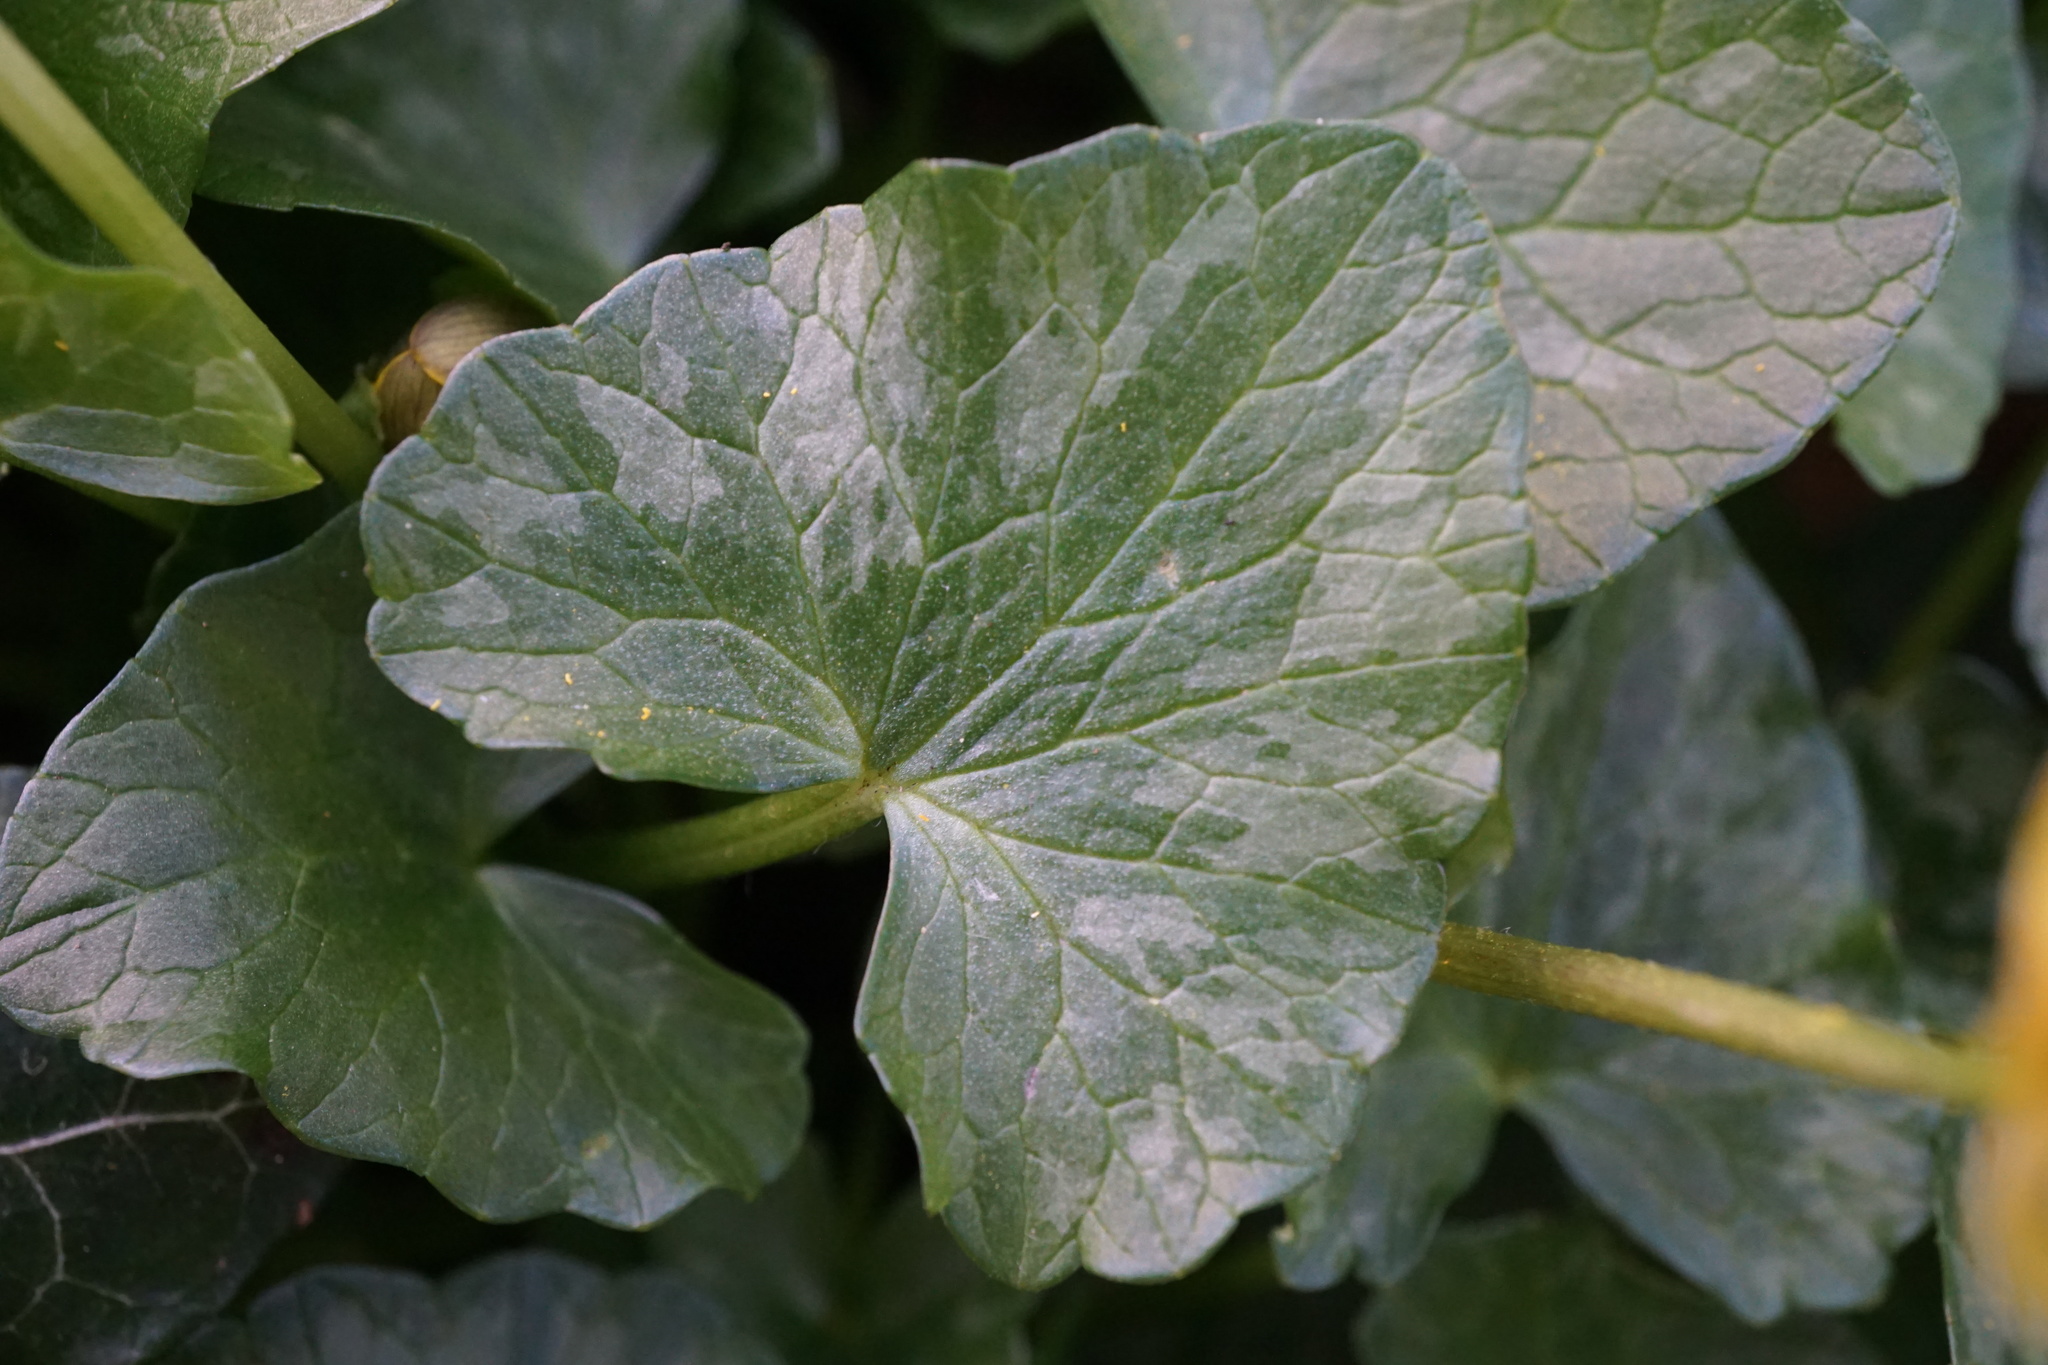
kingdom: Plantae
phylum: Tracheophyta
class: Magnoliopsida
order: Ranunculales
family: Ranunculaceae
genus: Ficaria
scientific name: Ficaria verna
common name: Lesser celandine
